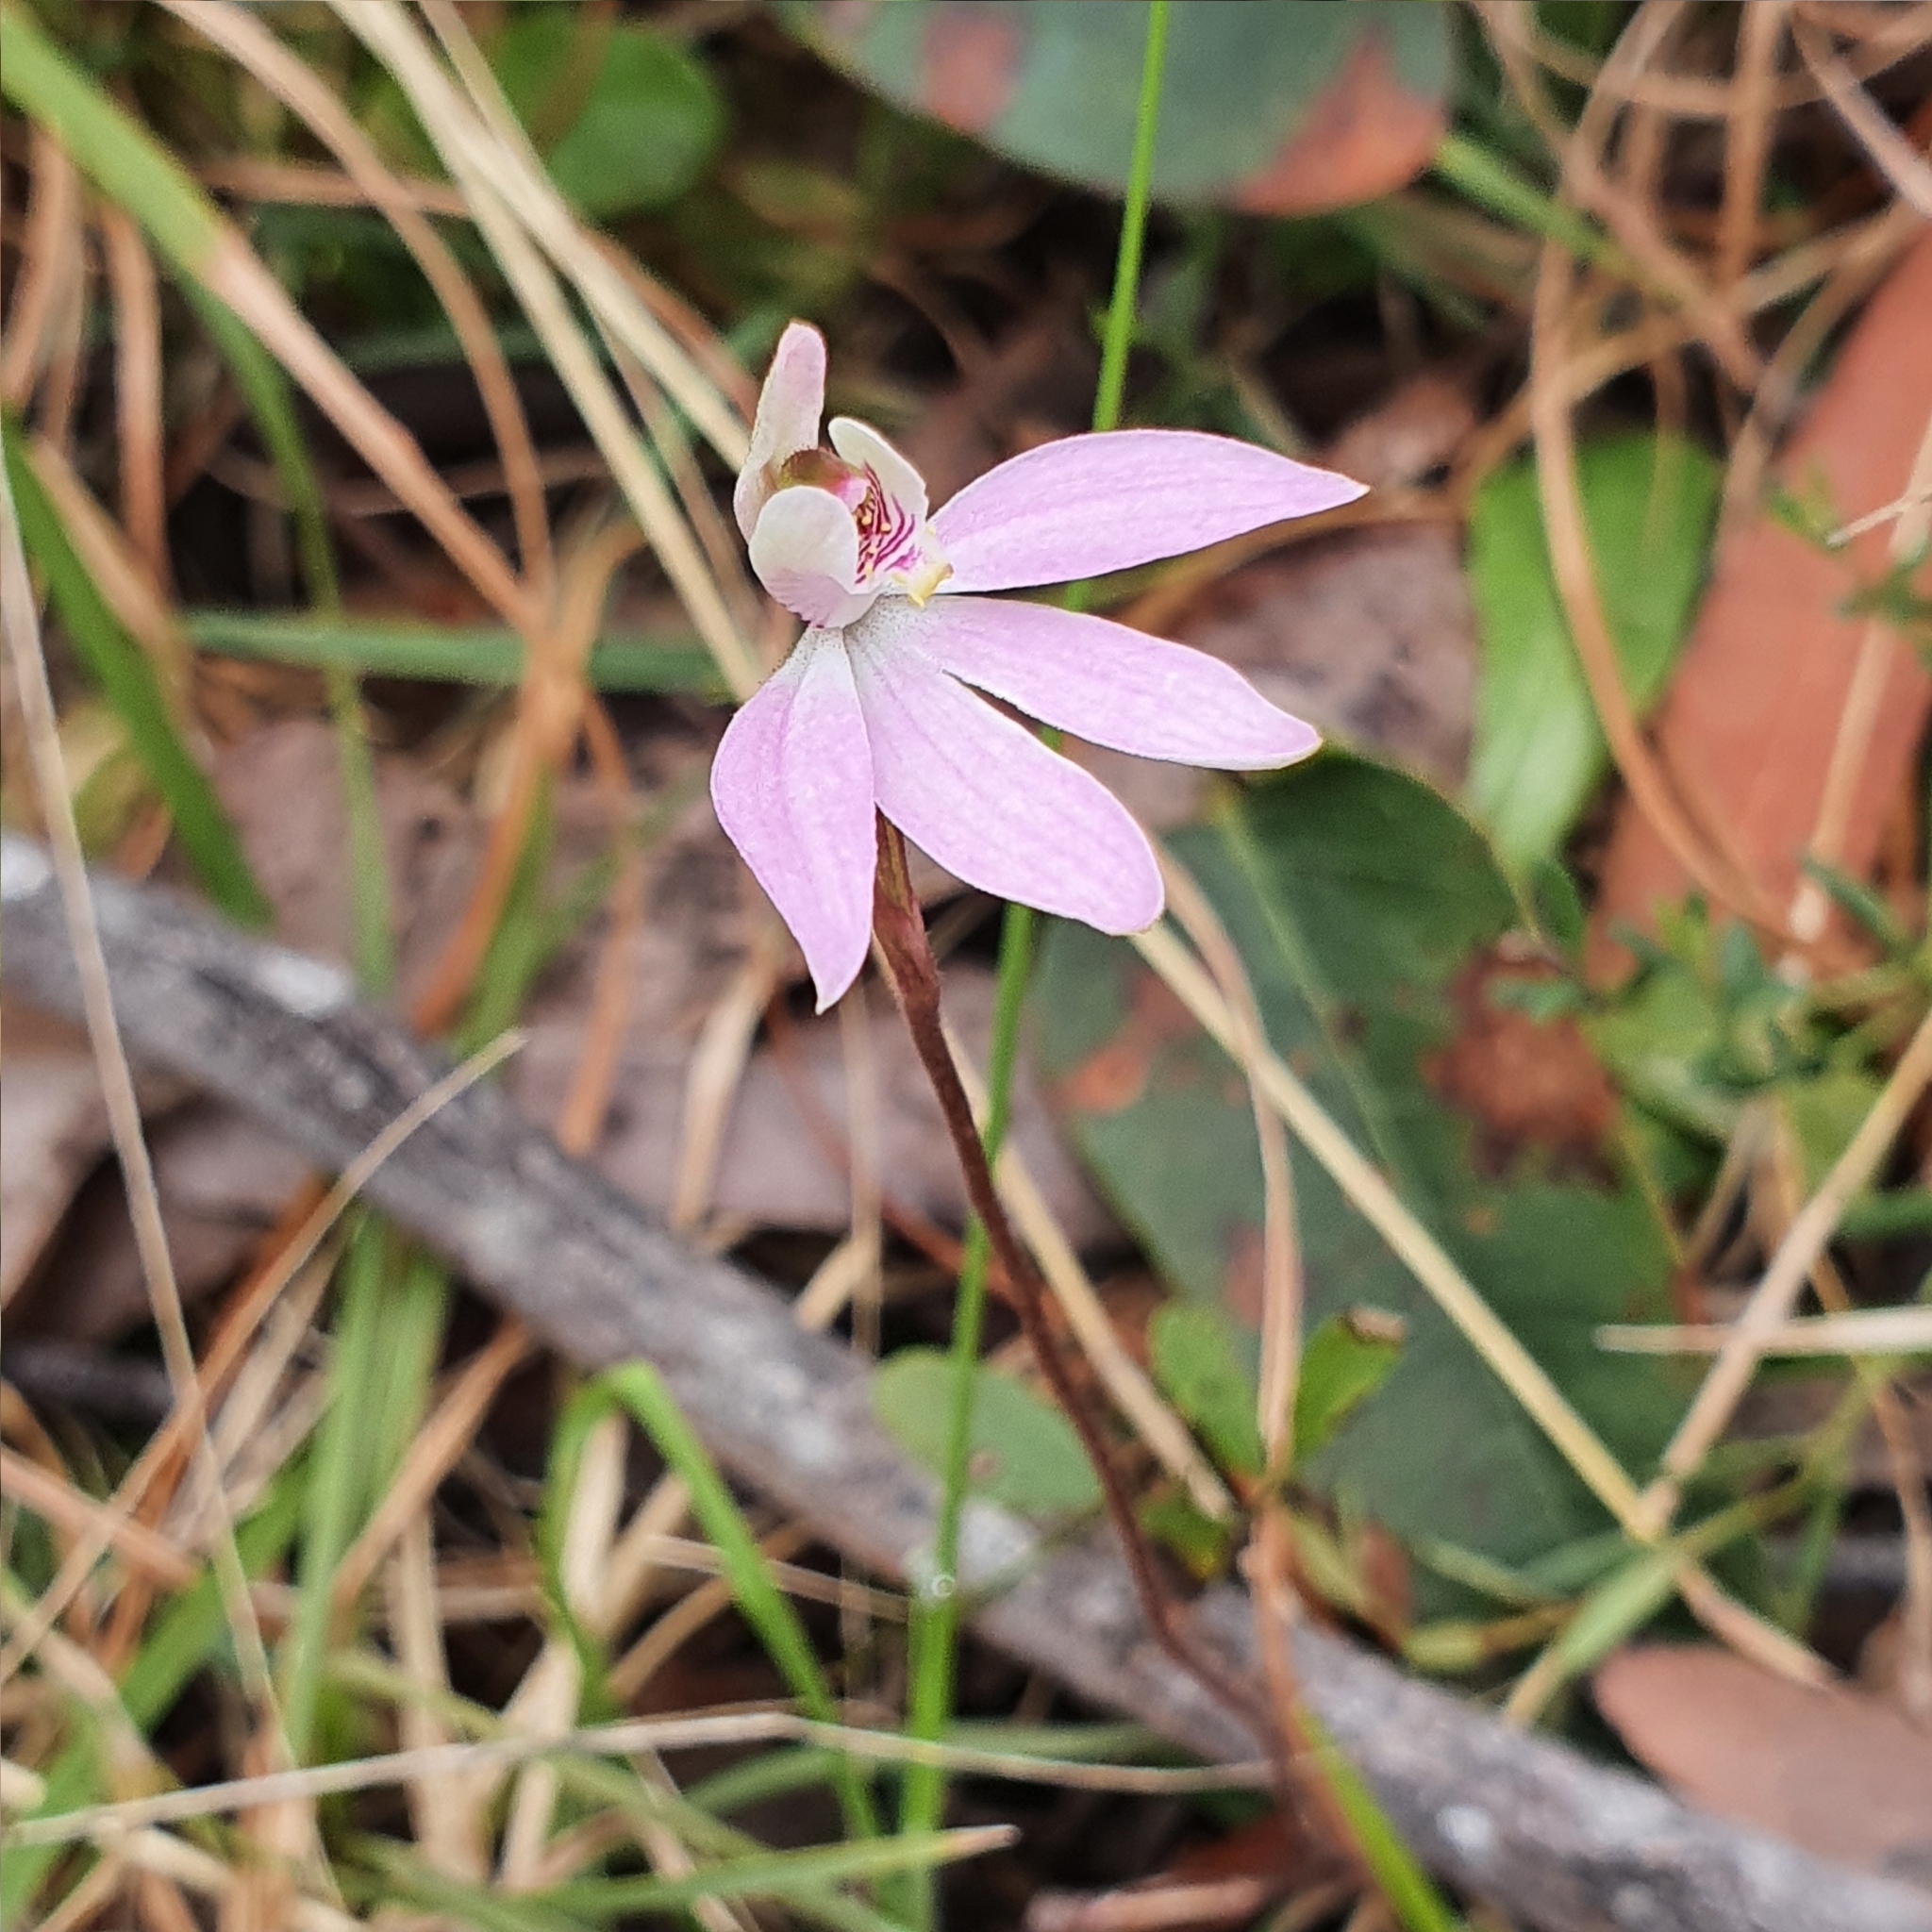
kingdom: Plantae
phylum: Tracheophyta
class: Liliopsida
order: Asparagales
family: Orchidaceae
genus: Caladenia
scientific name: Caladenia carnea
